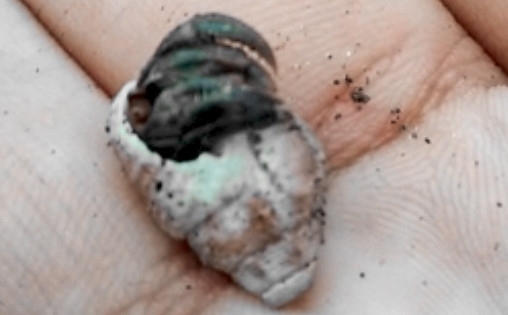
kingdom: Animalia
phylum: Arthropoda
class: Malacostraca
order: Decapoda
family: Coenobitidae
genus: Coenobita
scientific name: Coenobita compressus
